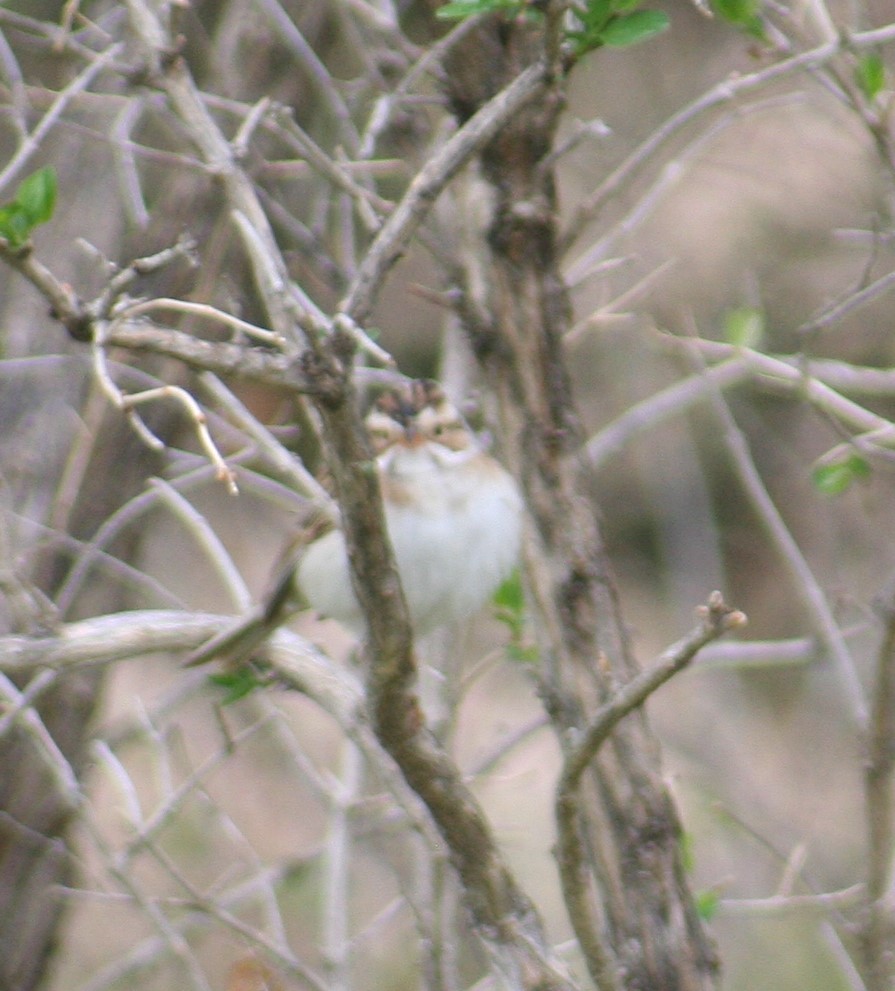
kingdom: Animalia
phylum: Chordata
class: Aves
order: Passeriformes
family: Passerellidae
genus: Spizella
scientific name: Spizella pallida
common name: Clay-colored sparrow
